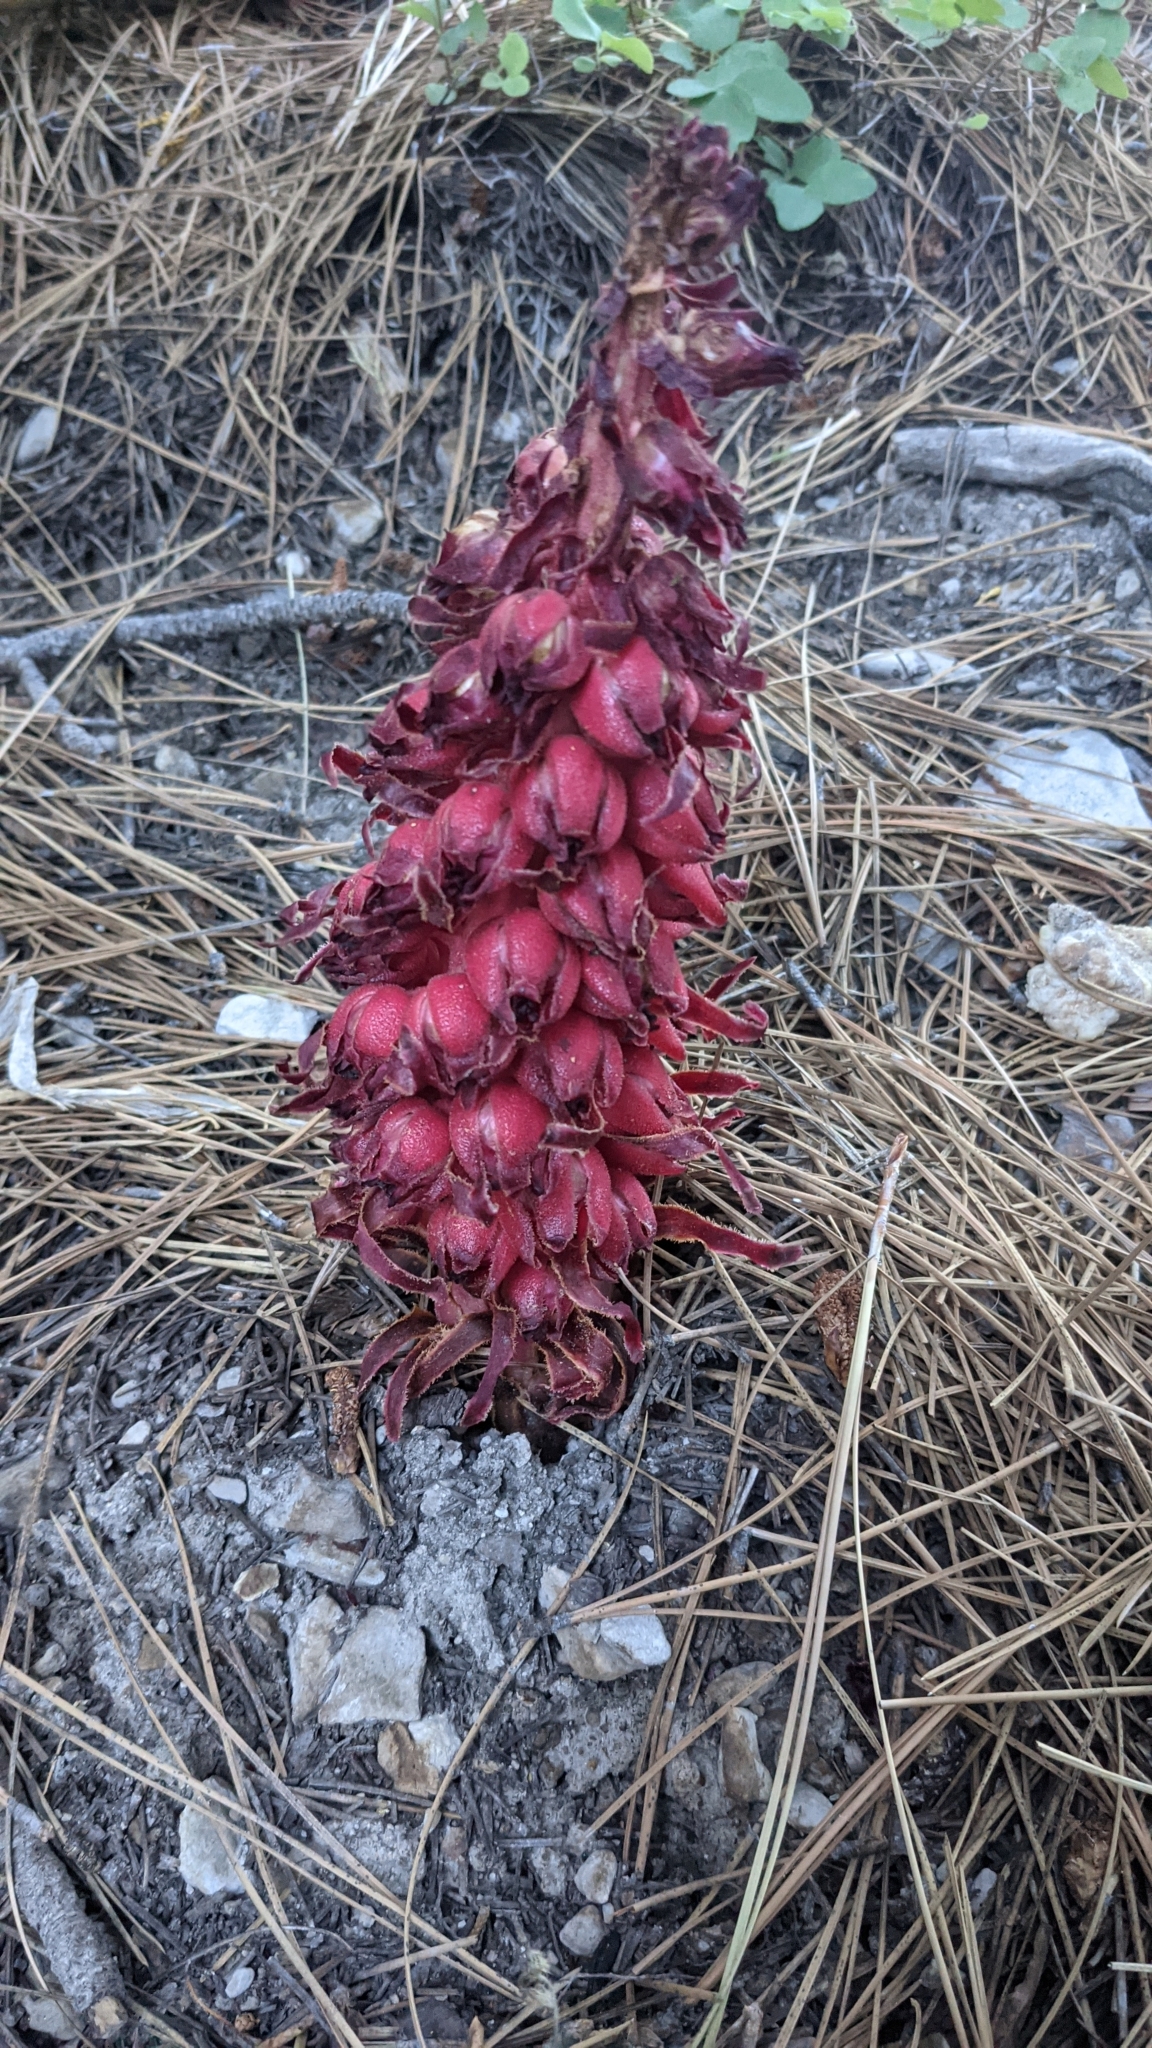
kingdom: Plantae
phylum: Tracheophyta
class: Magnoliopsida
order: Ericales
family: Ericaceae
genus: Sarcodes
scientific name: Sarcodes sanguinea
